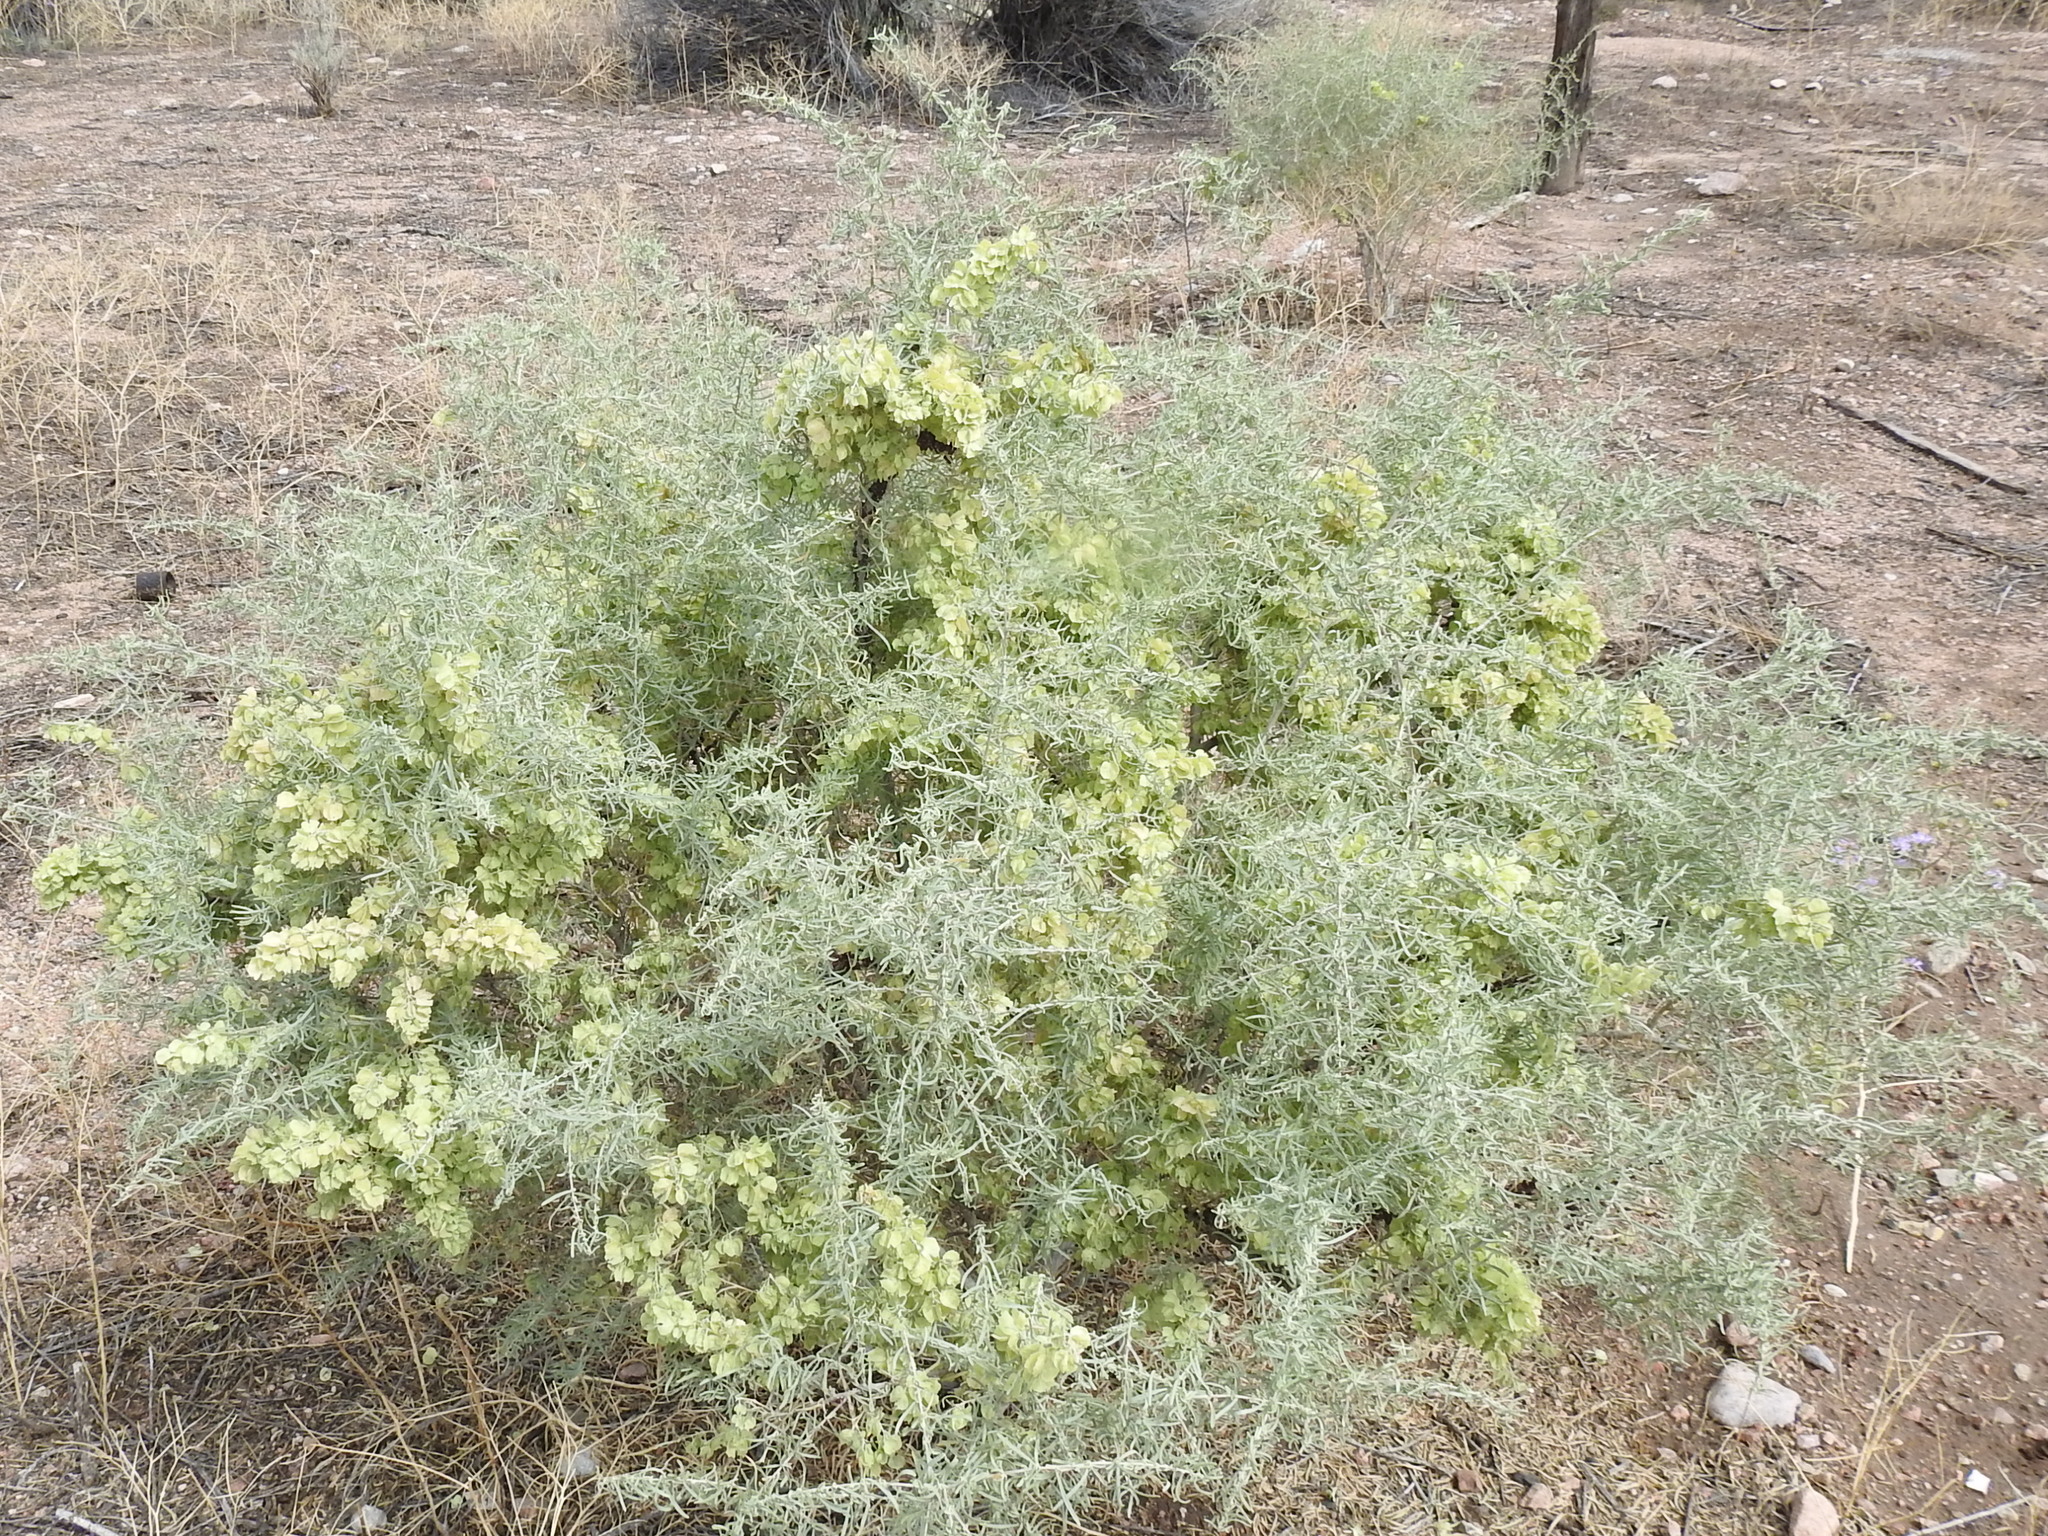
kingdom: Plantae
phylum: Tracheophyta
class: Magnoliopsida
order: Caryophyllales
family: Amaranthaceae
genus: Atriplex
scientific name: Atriplex canescens
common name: Four-wing saltbush
